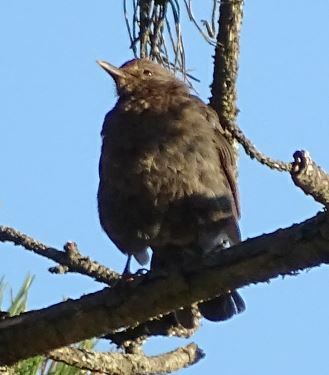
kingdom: Animalia
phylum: Chordata
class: Aves
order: Passeriformes
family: Turdidae
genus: Turdus
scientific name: Turdus merula
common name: Common blackbird
